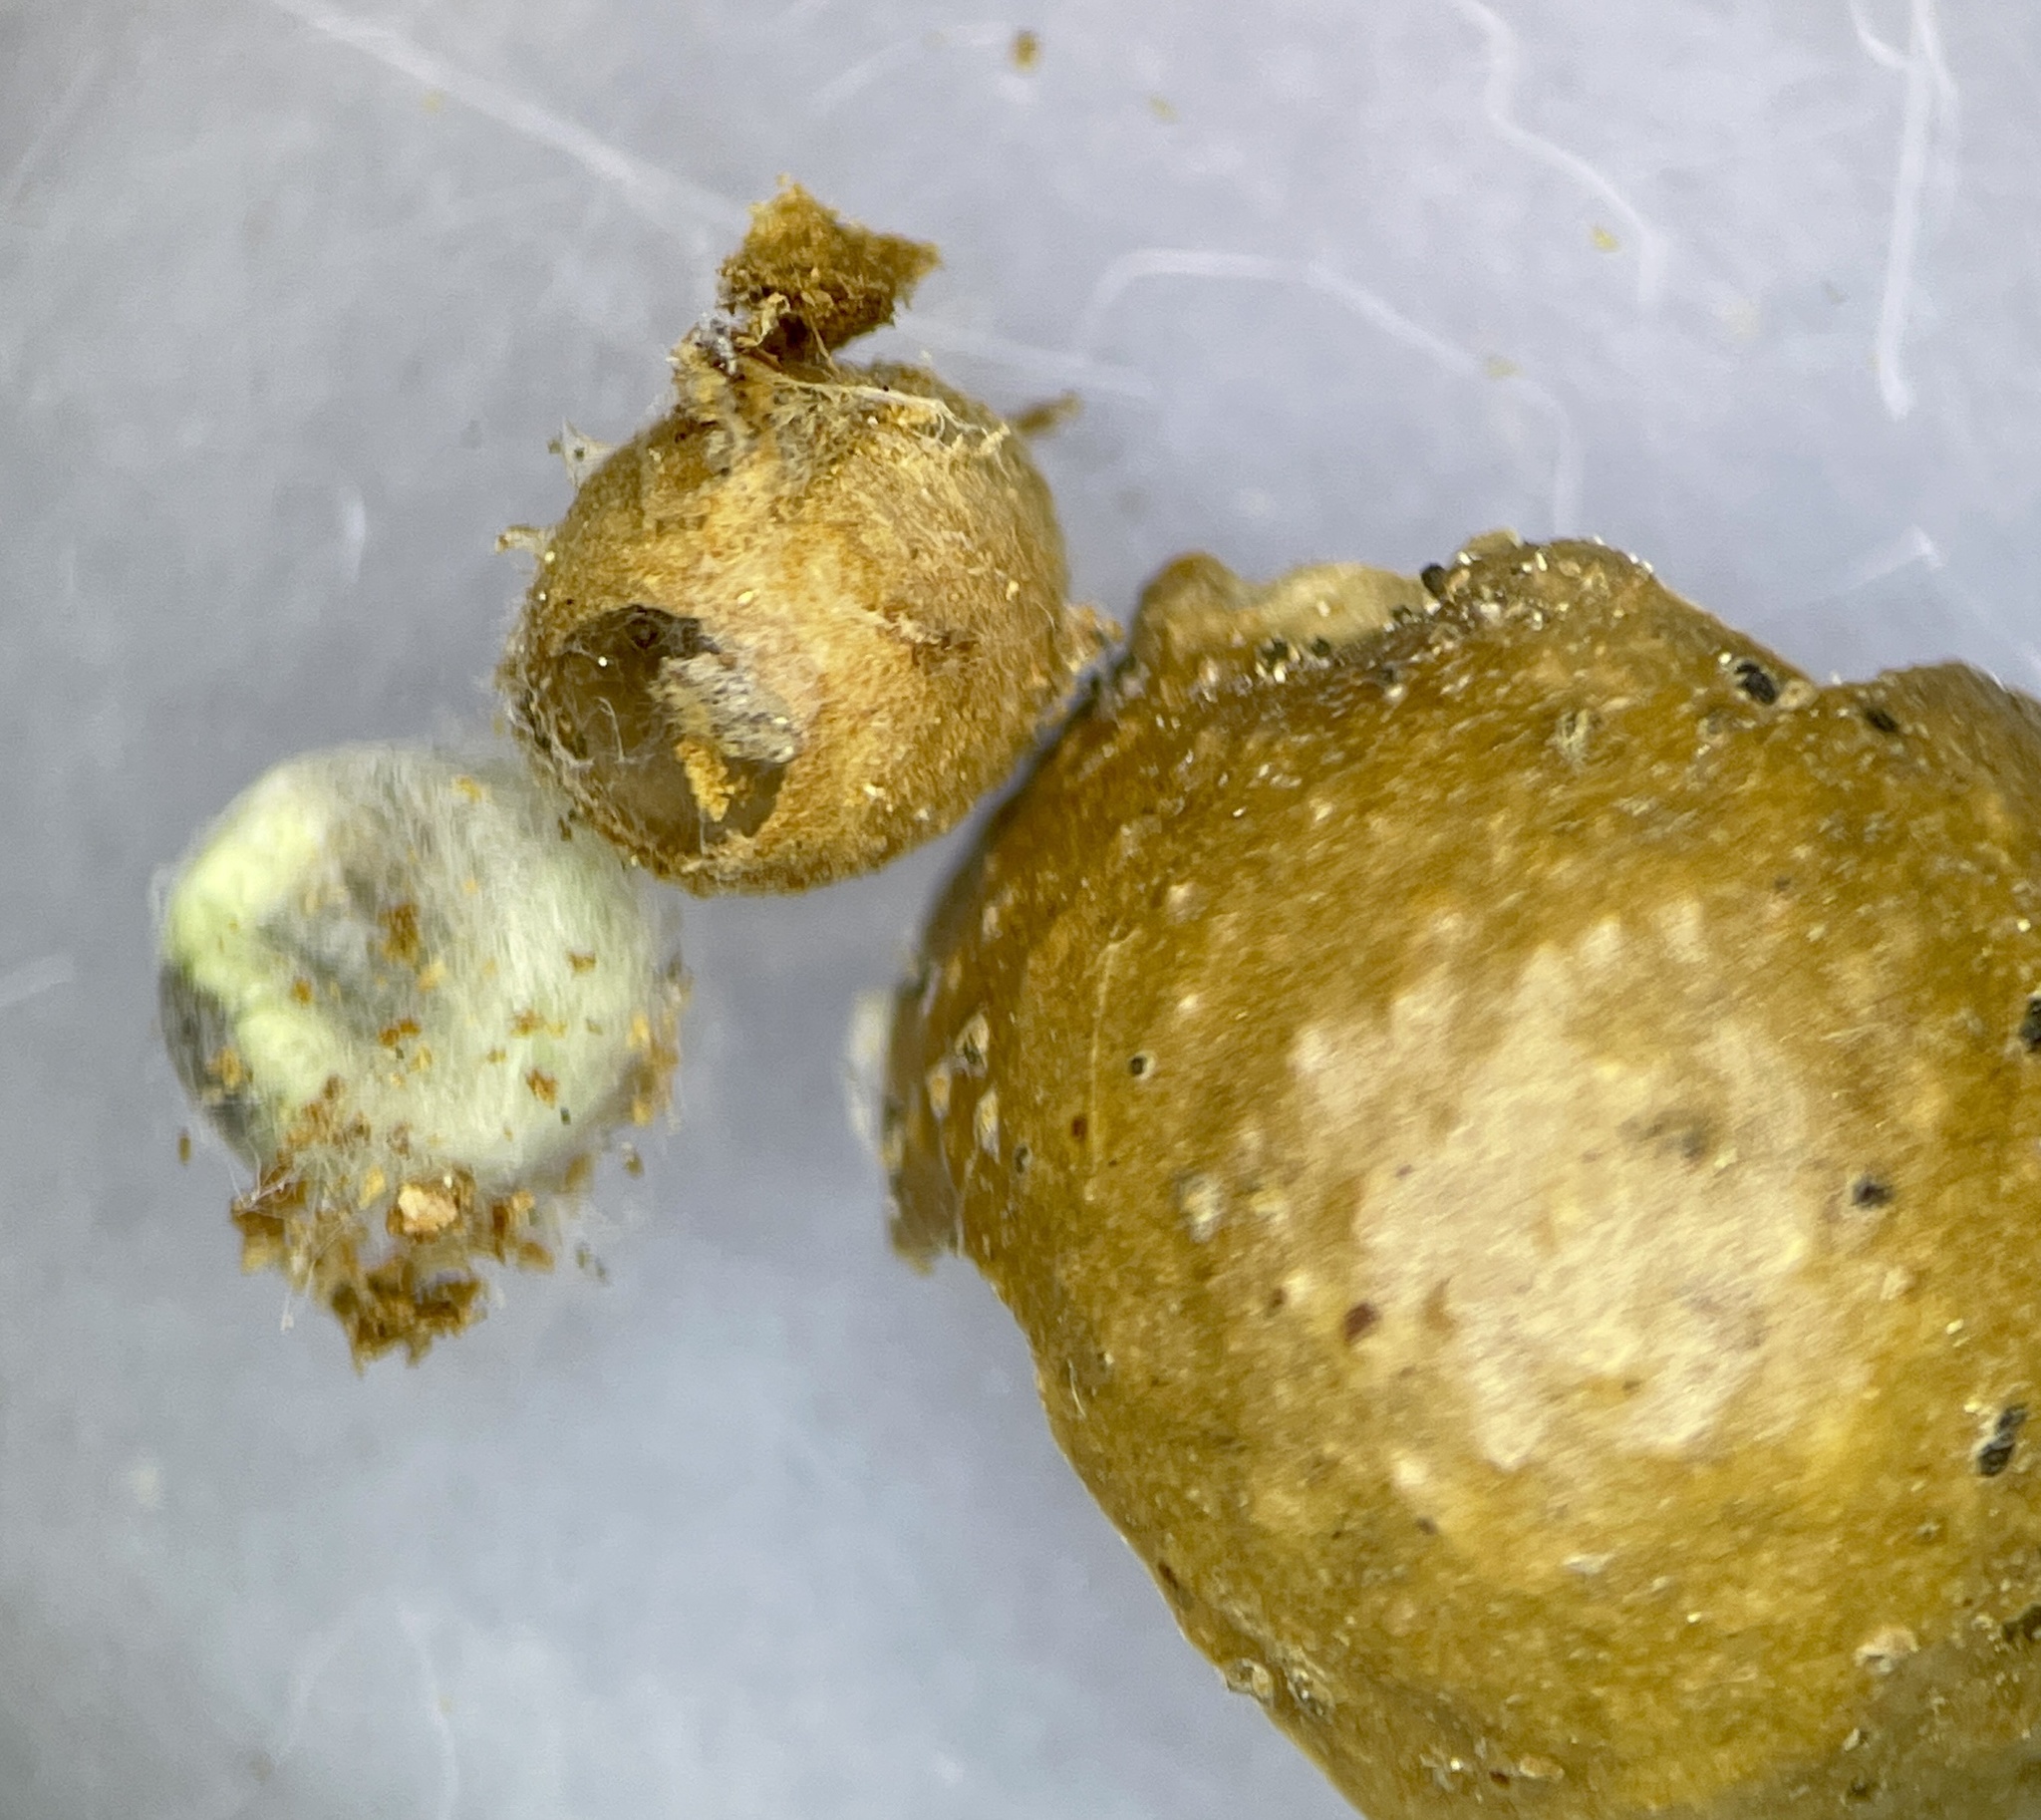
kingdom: Animalia
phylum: Arthropoda
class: Insecta
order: Hymenoptera
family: Cynipidae
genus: Disholcaspis
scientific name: Disholcaspis quercusglobulus
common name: Round bullet gall wasp
